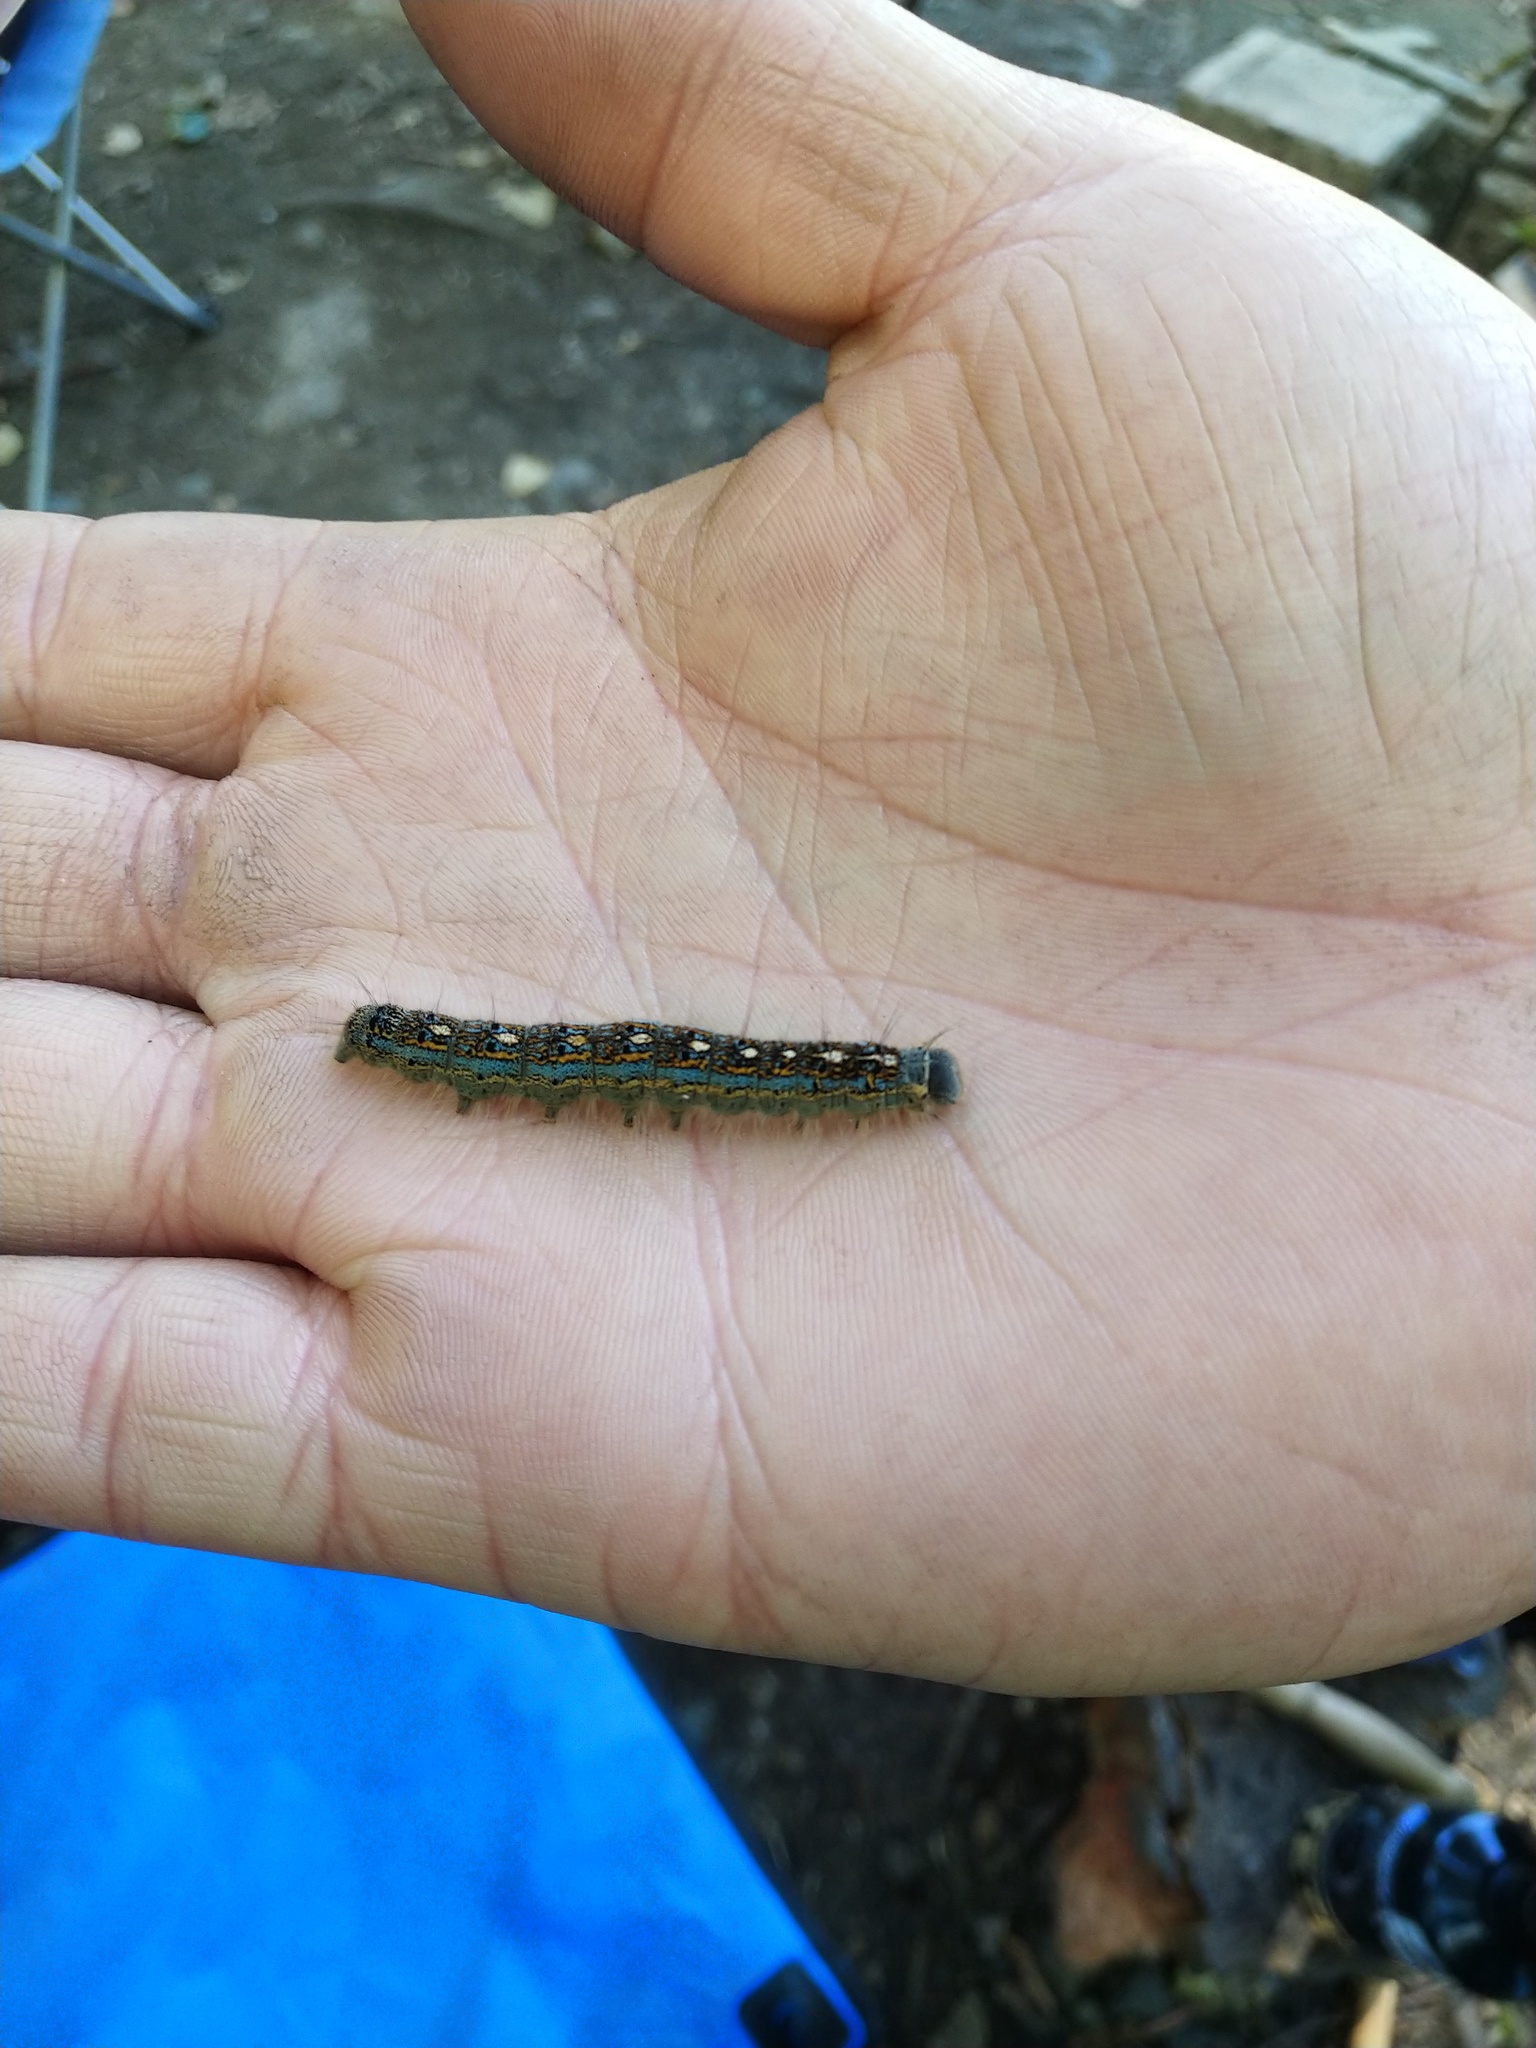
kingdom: Animalia
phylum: Arthropoda
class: Insecta
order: Lepidoptera
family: Lasiocampidae
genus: Malacosoma
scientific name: Malacosoma disstria
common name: Forest tent caterpillar
